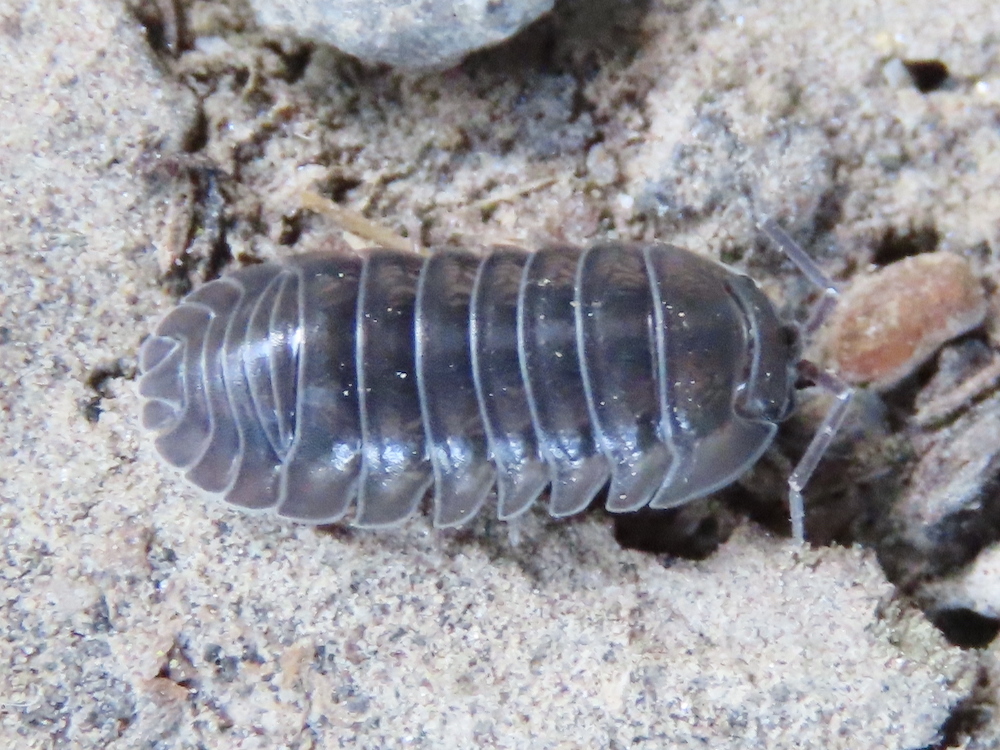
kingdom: Animalia
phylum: Arthropoda
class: Malacostraca
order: Isopoda
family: Armadillidiidae
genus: Armadillidium
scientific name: Armadillidium nasatum
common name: Isopod
